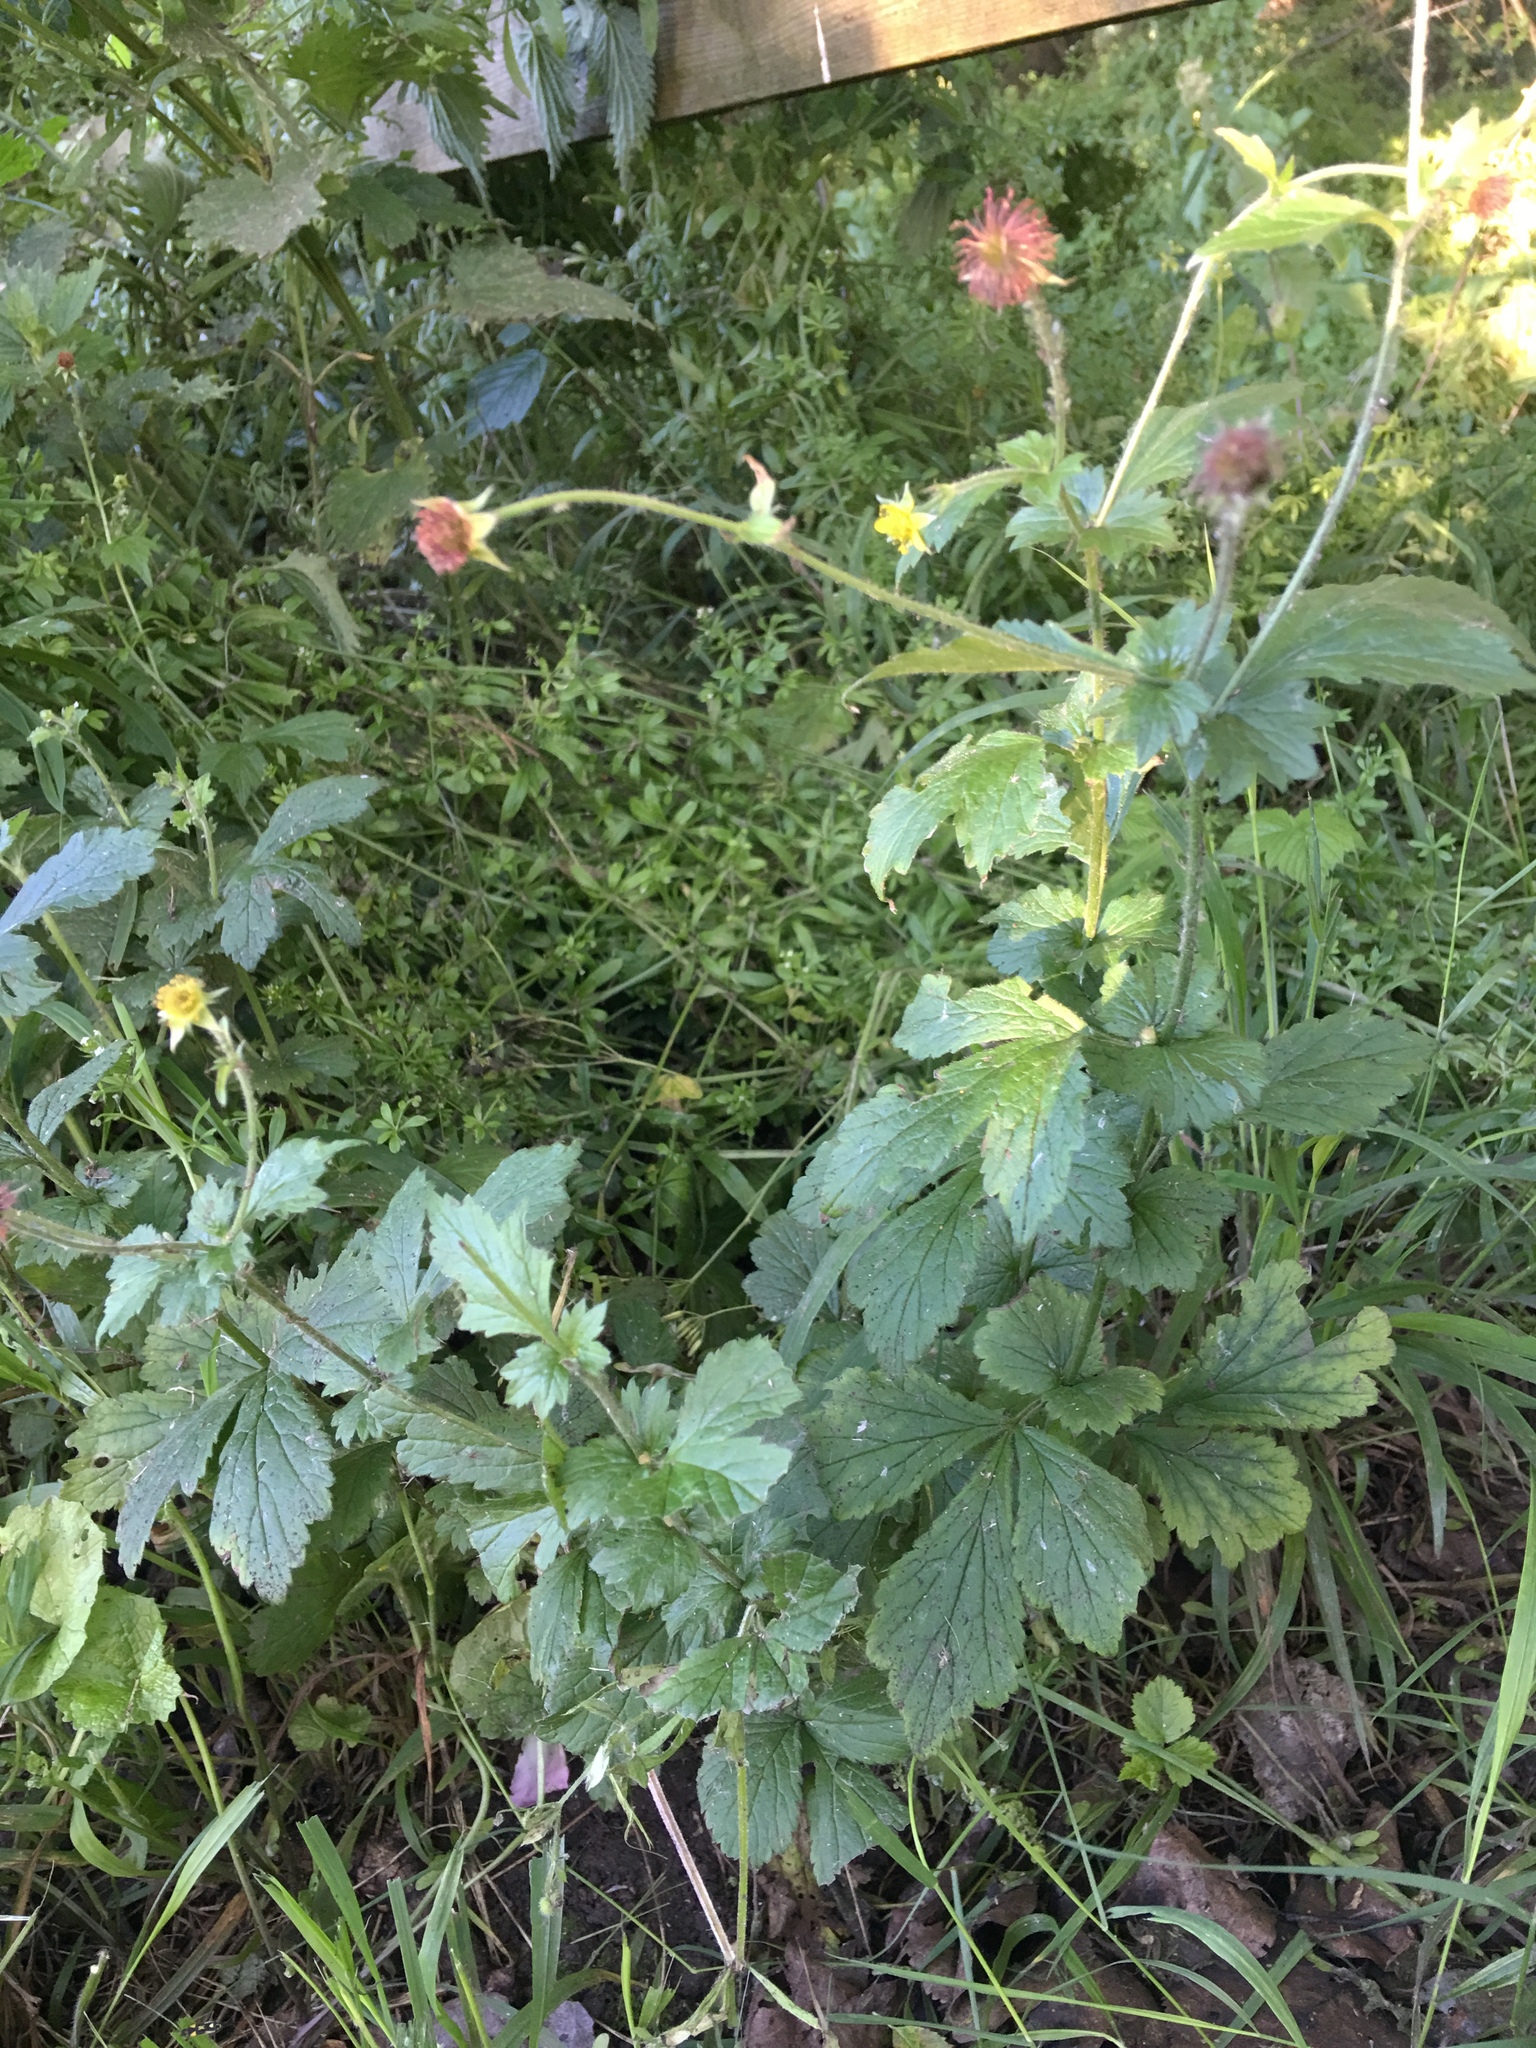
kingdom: Plantae
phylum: Tracheophyta
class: Magnoliopsida
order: Rosales
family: Rosaceae
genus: Geum
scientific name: Geum urbanum
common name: Wood avens
